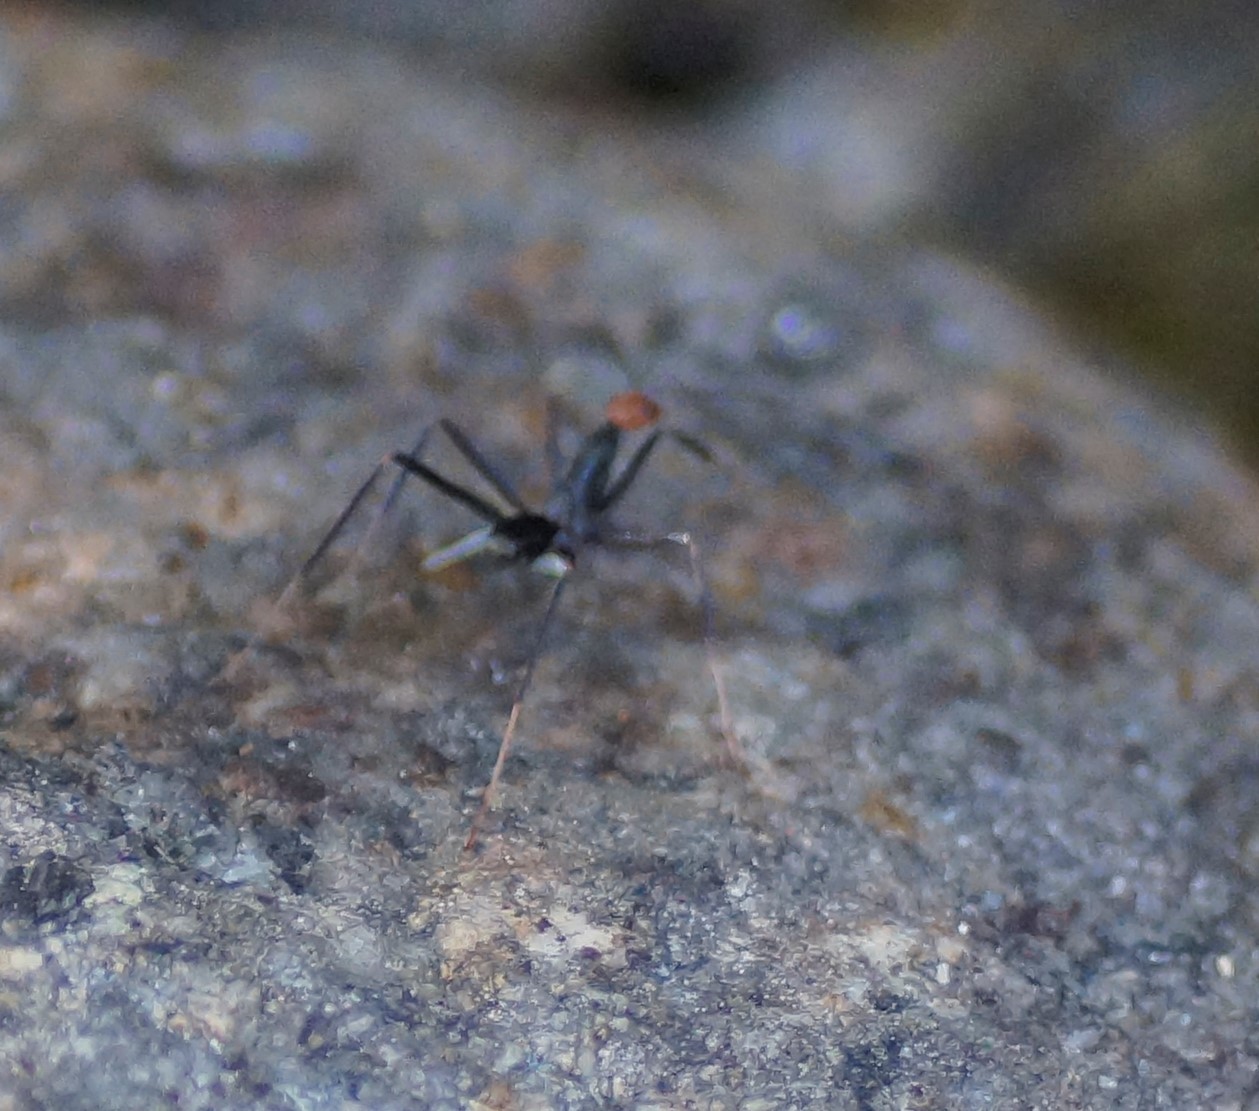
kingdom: Animalia
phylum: Arthropoda
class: Insecta
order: Hymenoptera
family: Formicidae
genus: Leptomyrmex
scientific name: Leptomyrmex erythrocephalus
